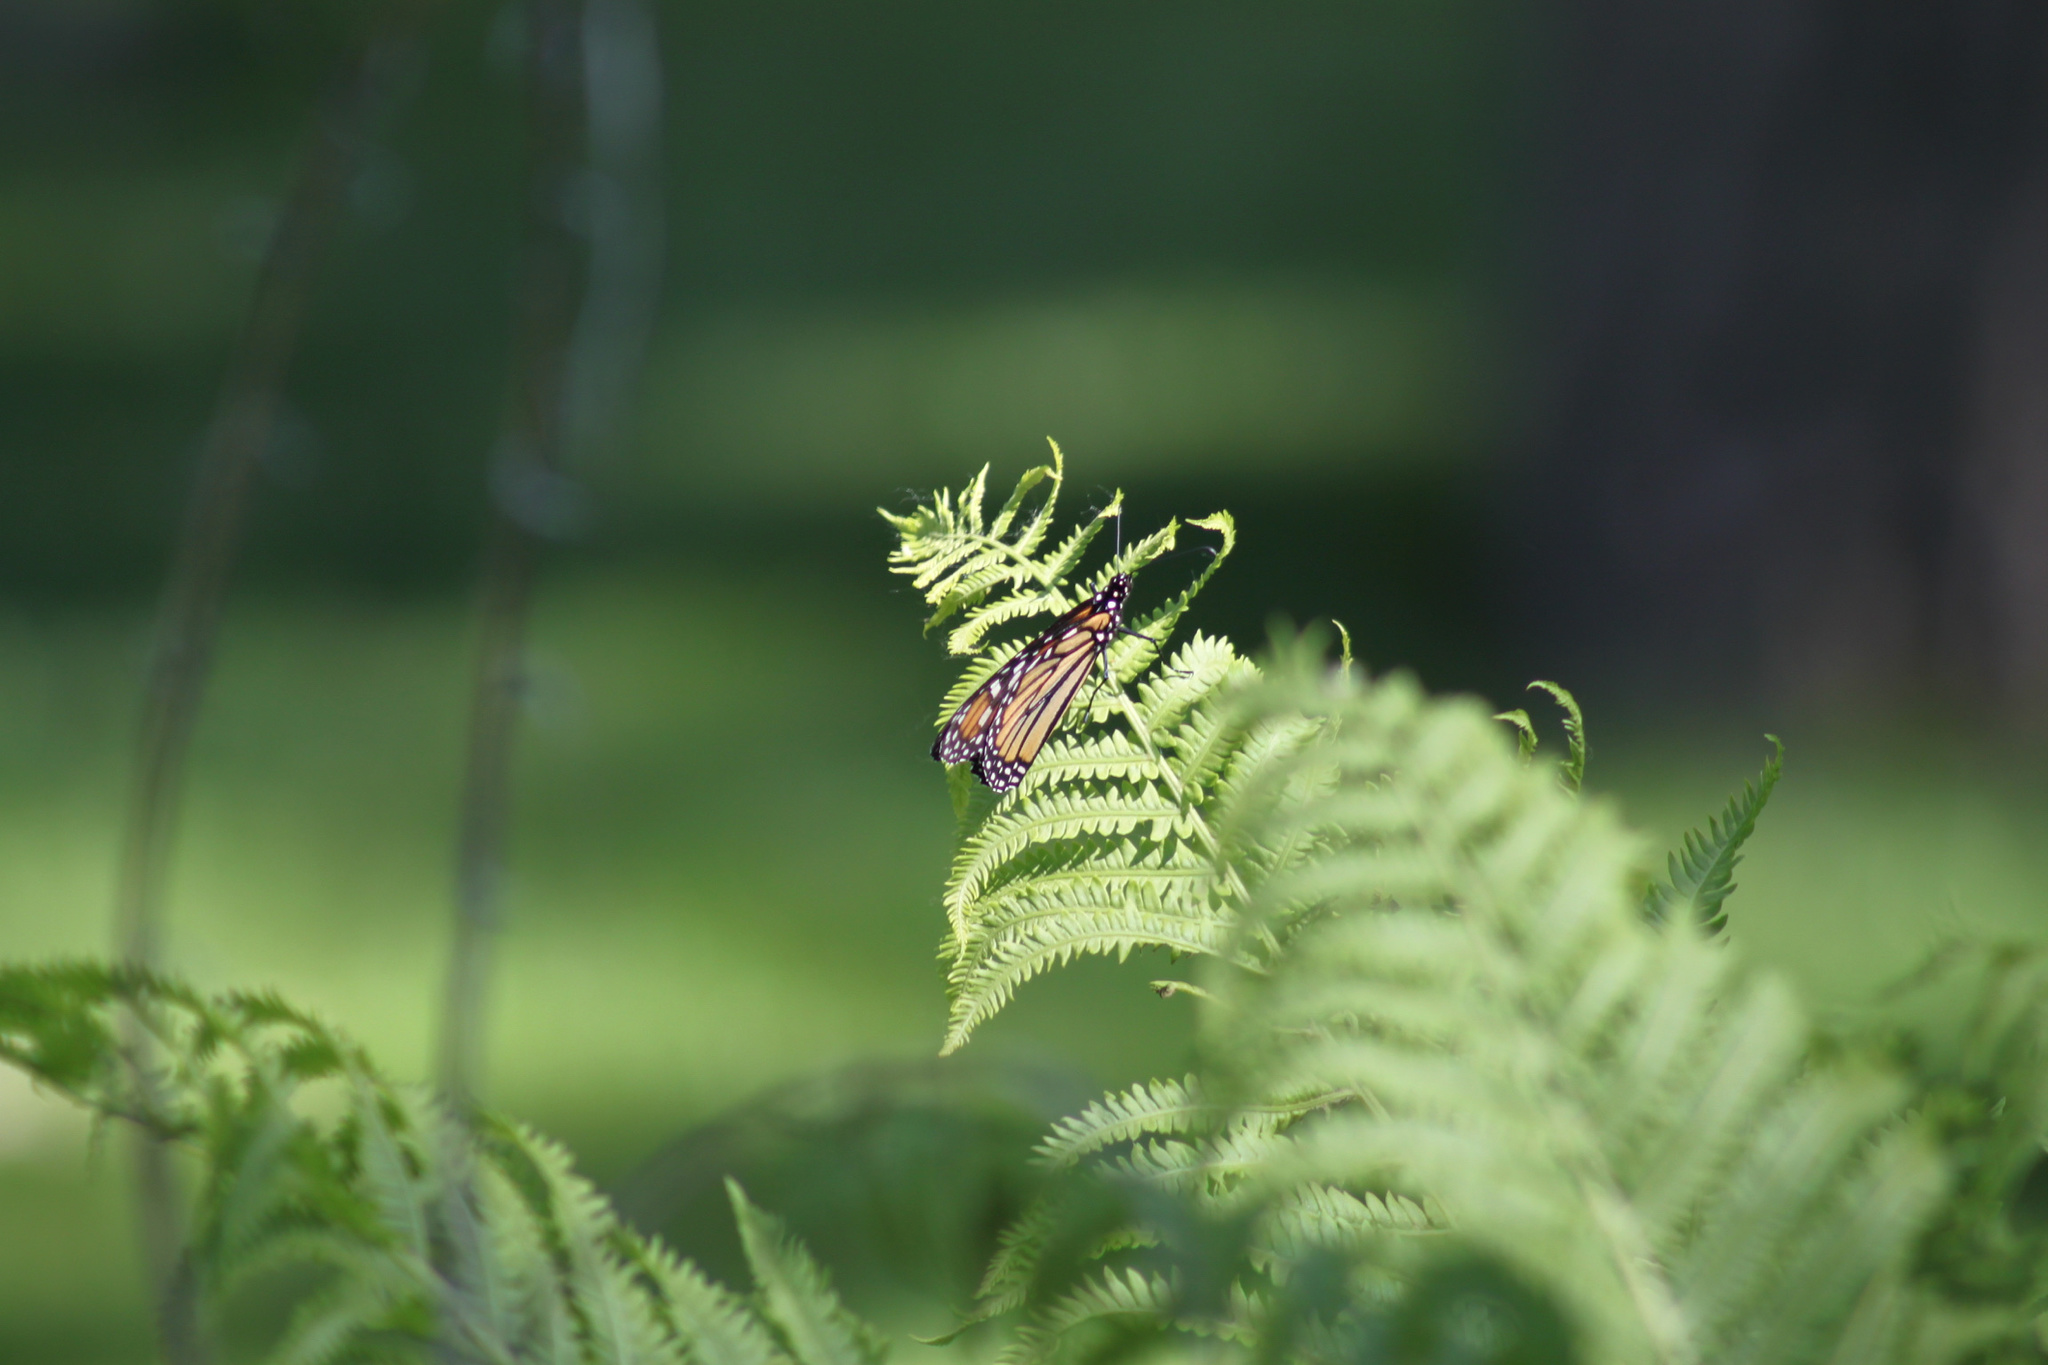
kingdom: Animalia
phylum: Arthropoda
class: Insecta
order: Lepidoptera
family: Nymphalidae
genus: Danaus
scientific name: Danaus plexippus
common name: Monarch
